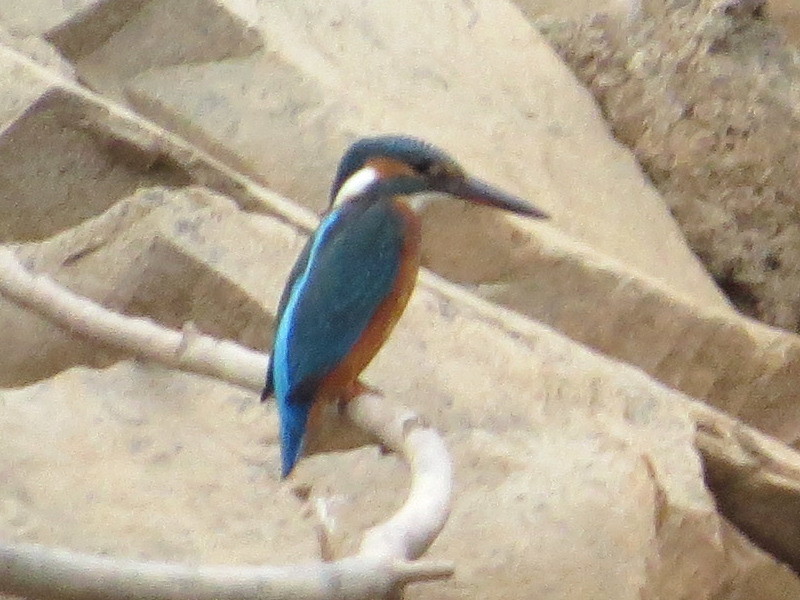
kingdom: Animalia
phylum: Chordata
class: Aves
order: Coraciiformes
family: Alcedinidae
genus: Alcedo
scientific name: Alcedo atthis
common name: Common kingfisher
